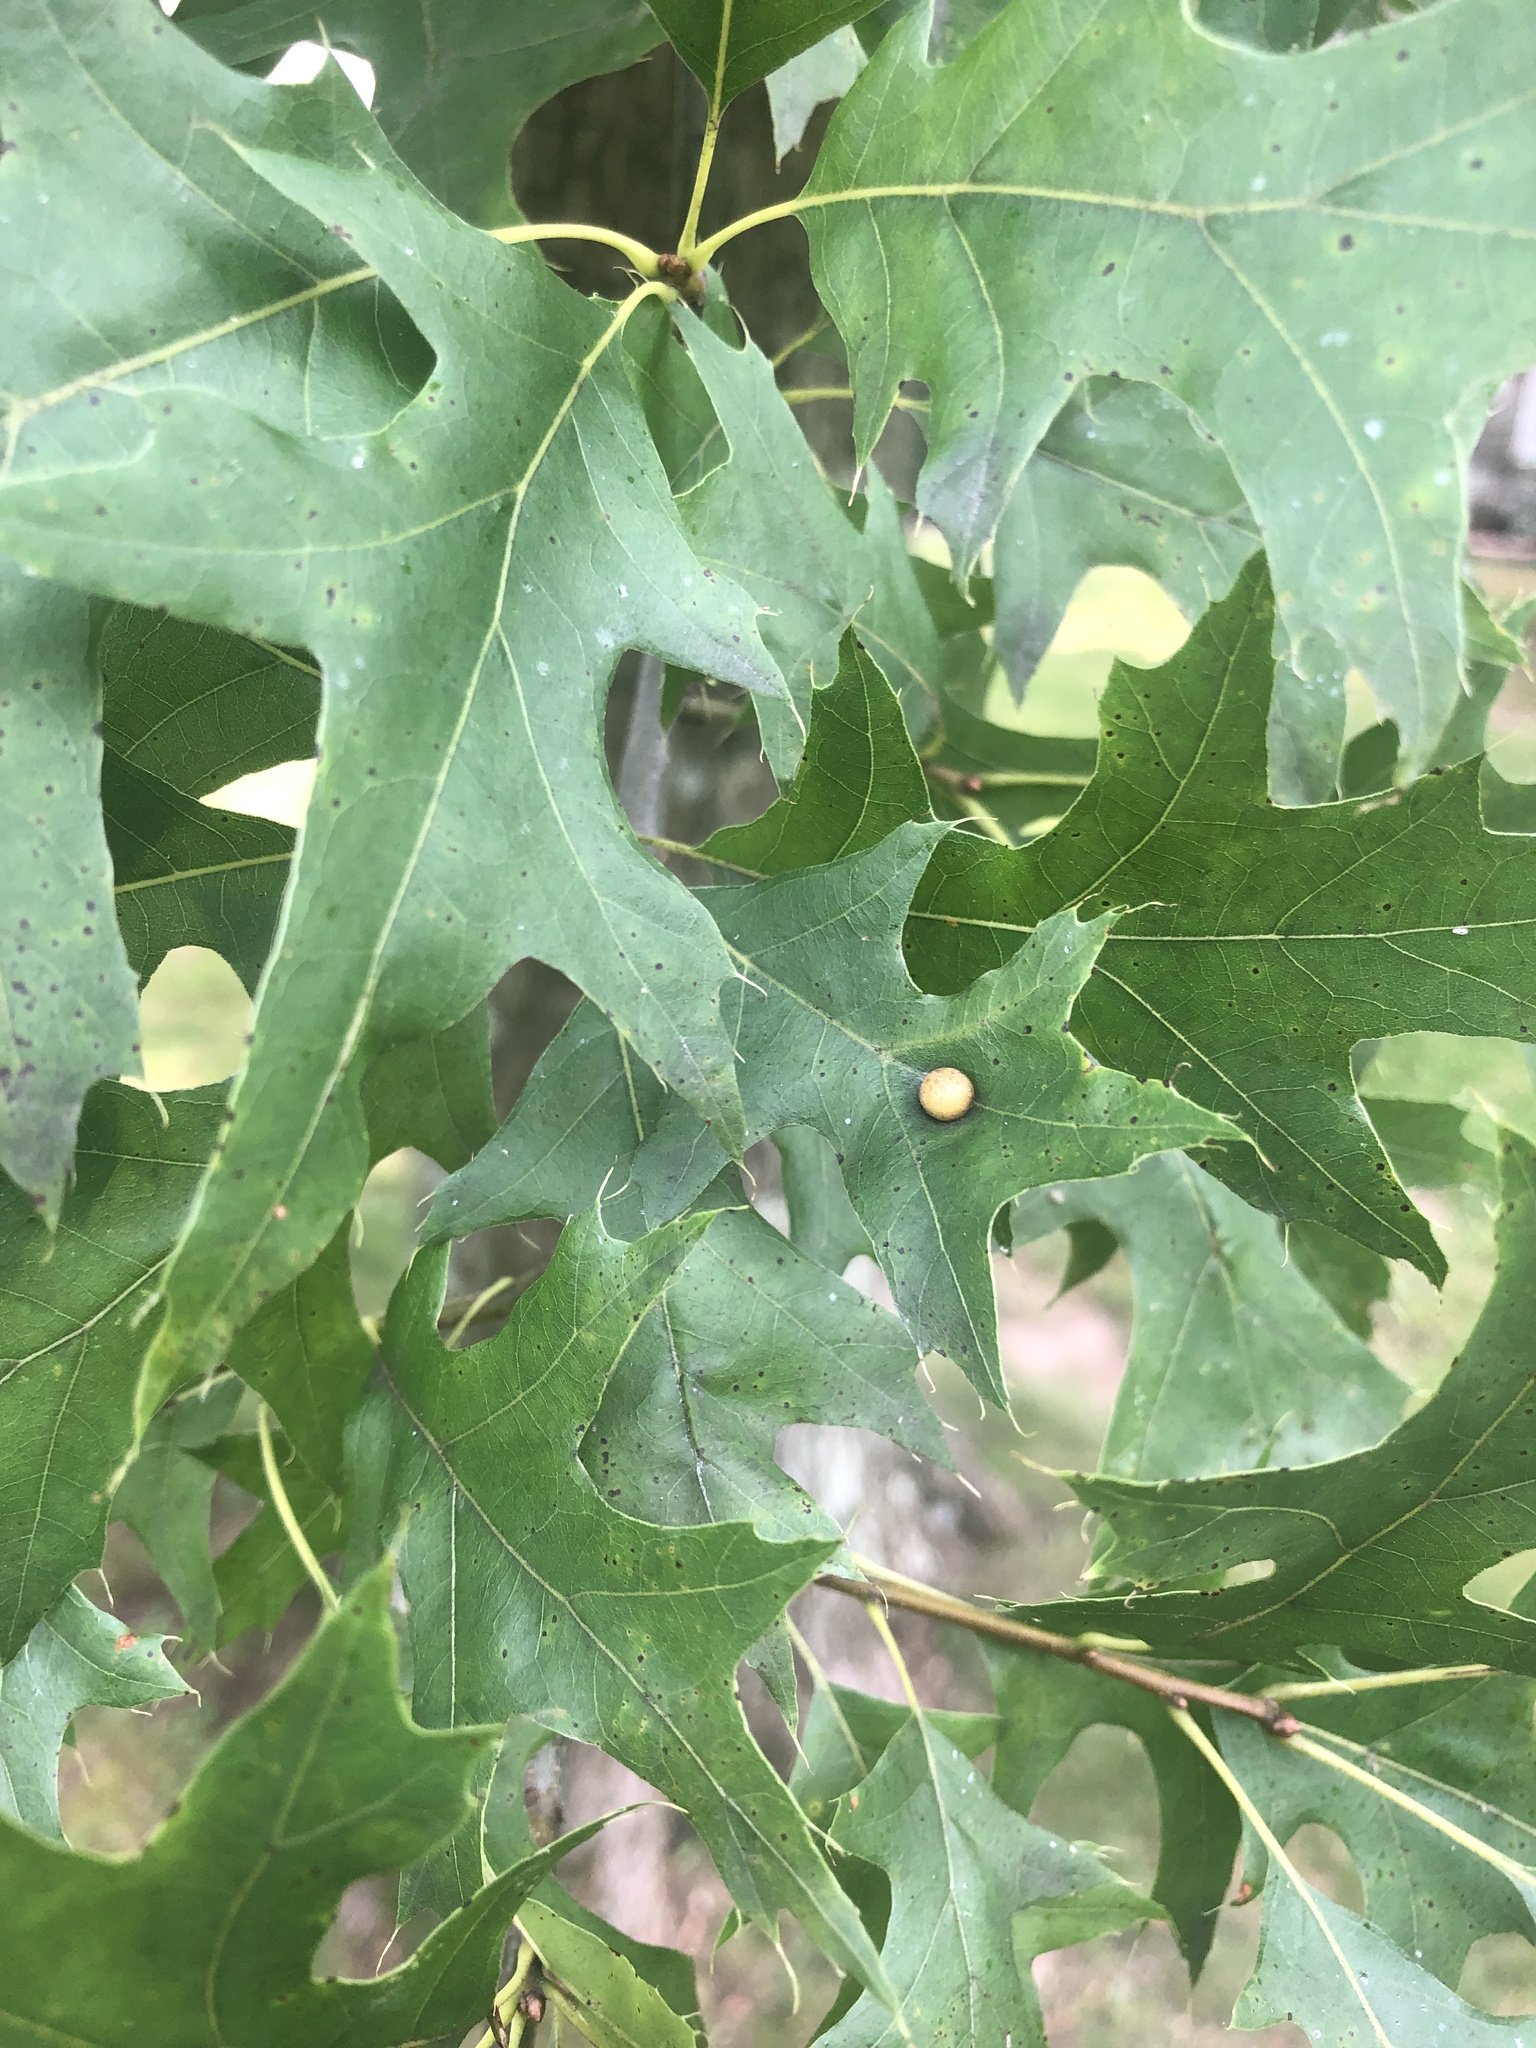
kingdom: Animalia
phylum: Arthropoda
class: Insecta
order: Diptera
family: Cecidomyiidae
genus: Polystepha
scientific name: Polystepha pilulae
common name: Oak leaf gall midge
